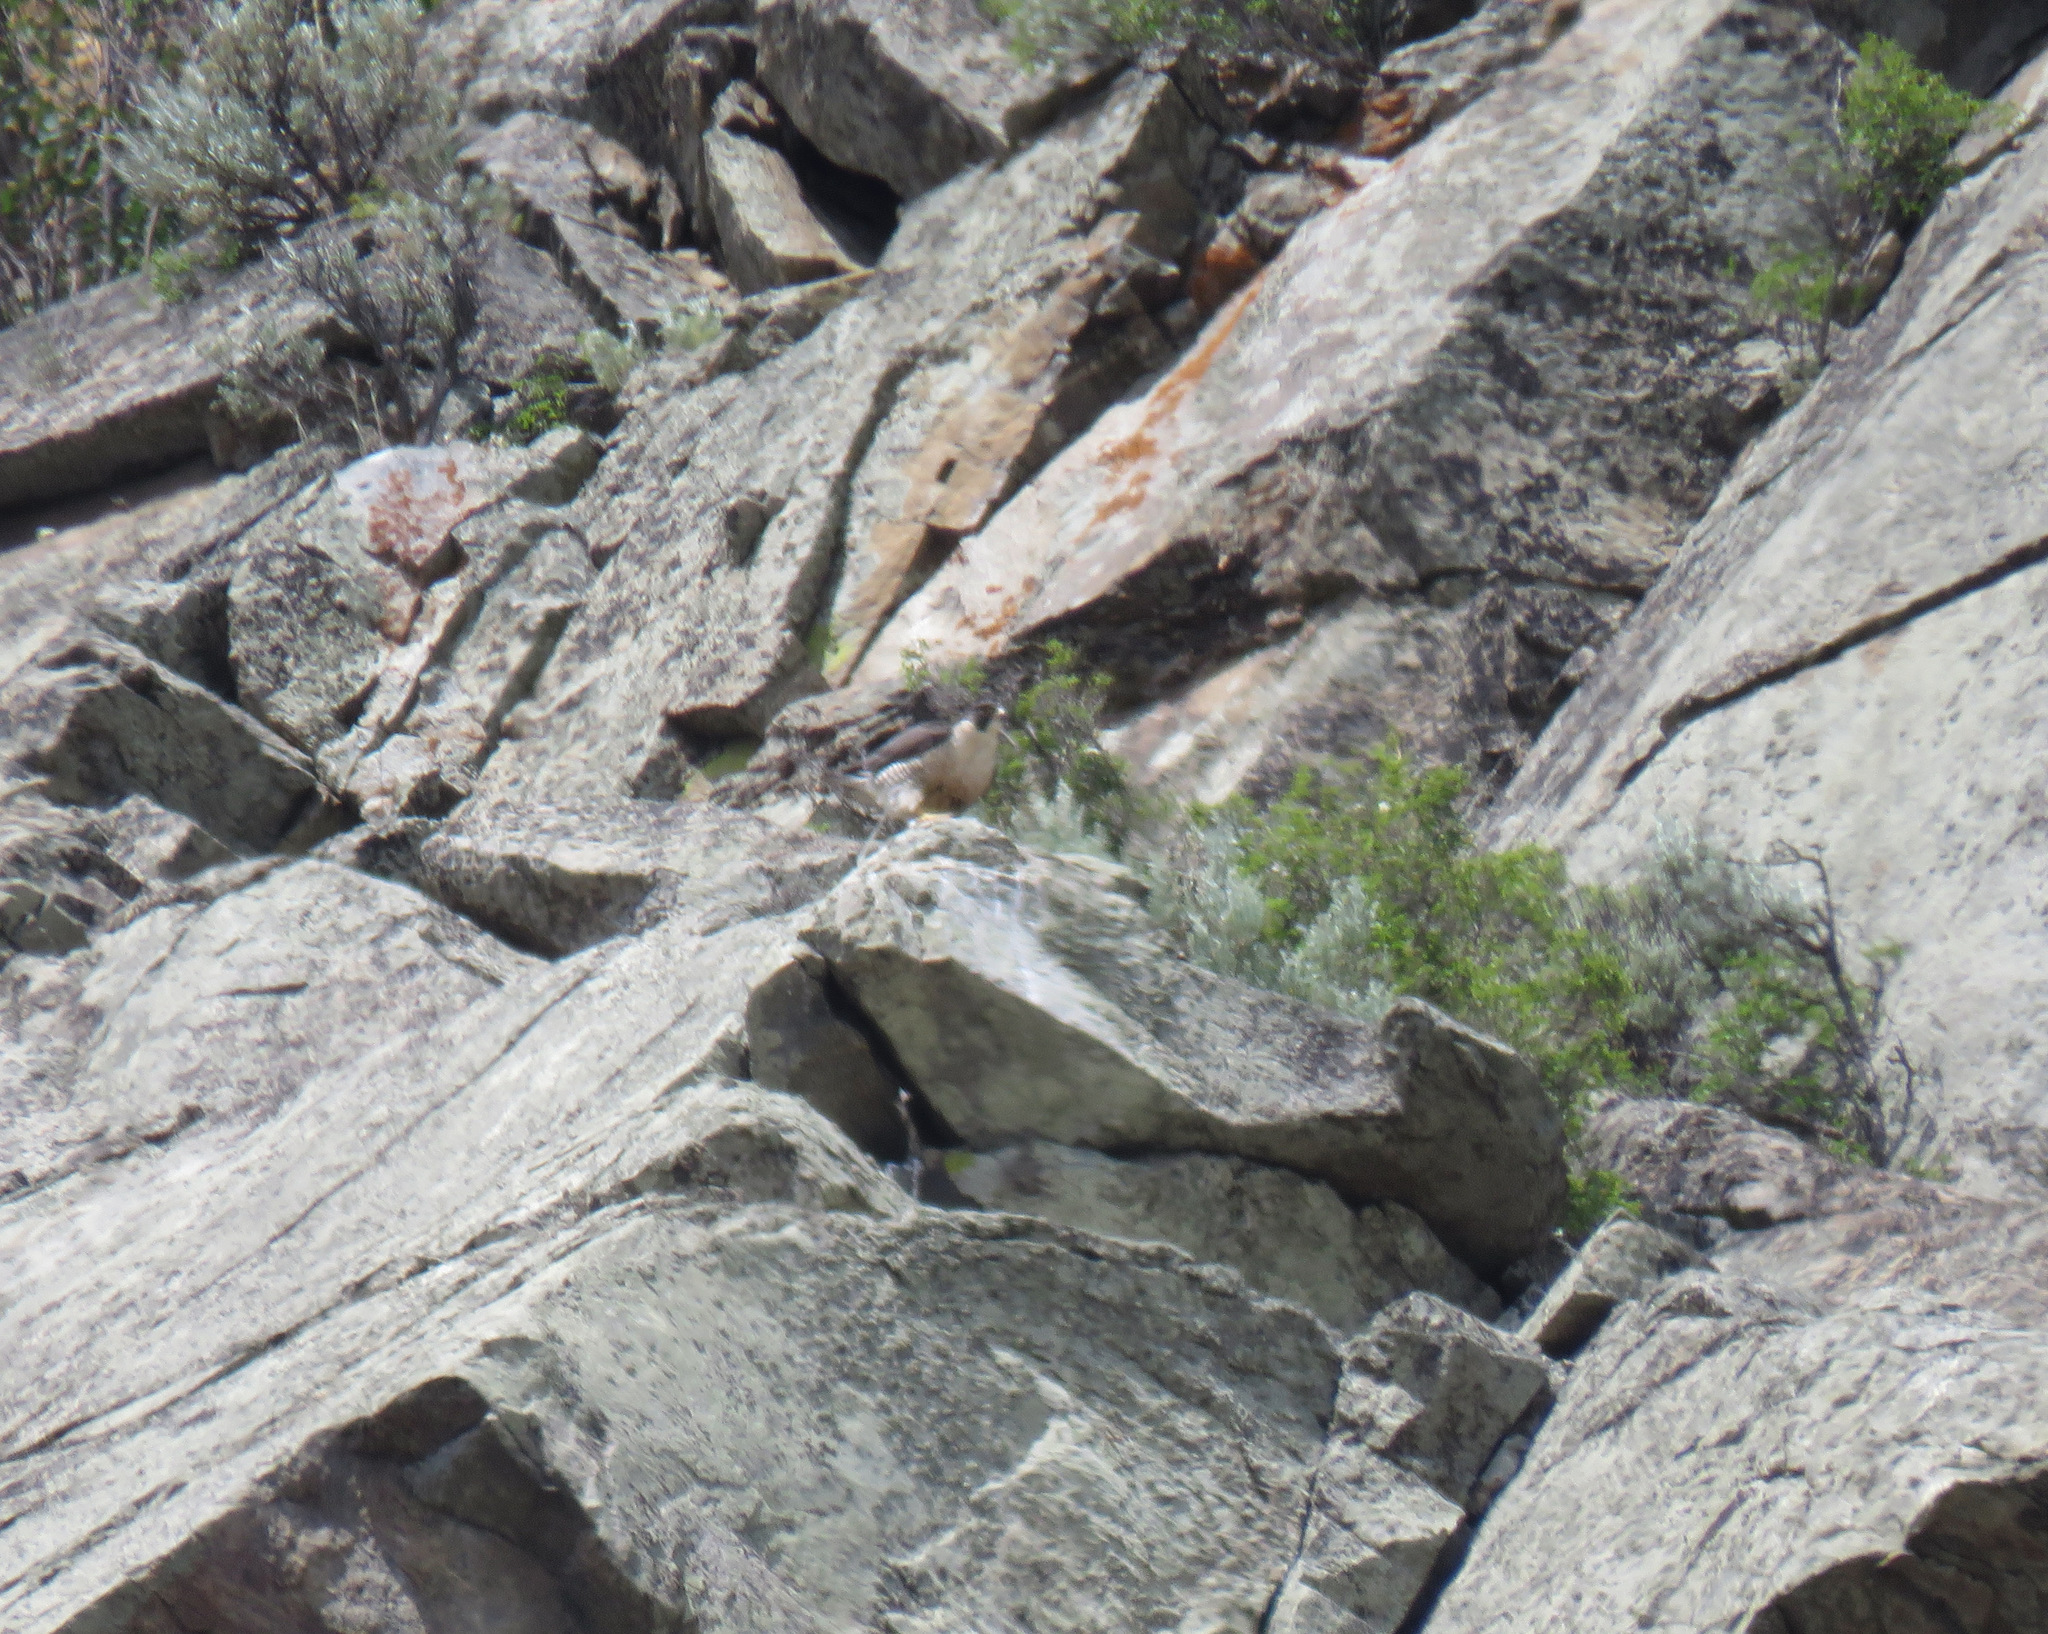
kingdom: Animalia
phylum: Chordata
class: Aves
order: Falconiformes
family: Falconidae
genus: Falco
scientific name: Falco peregrinus
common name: Peregrine falcon
